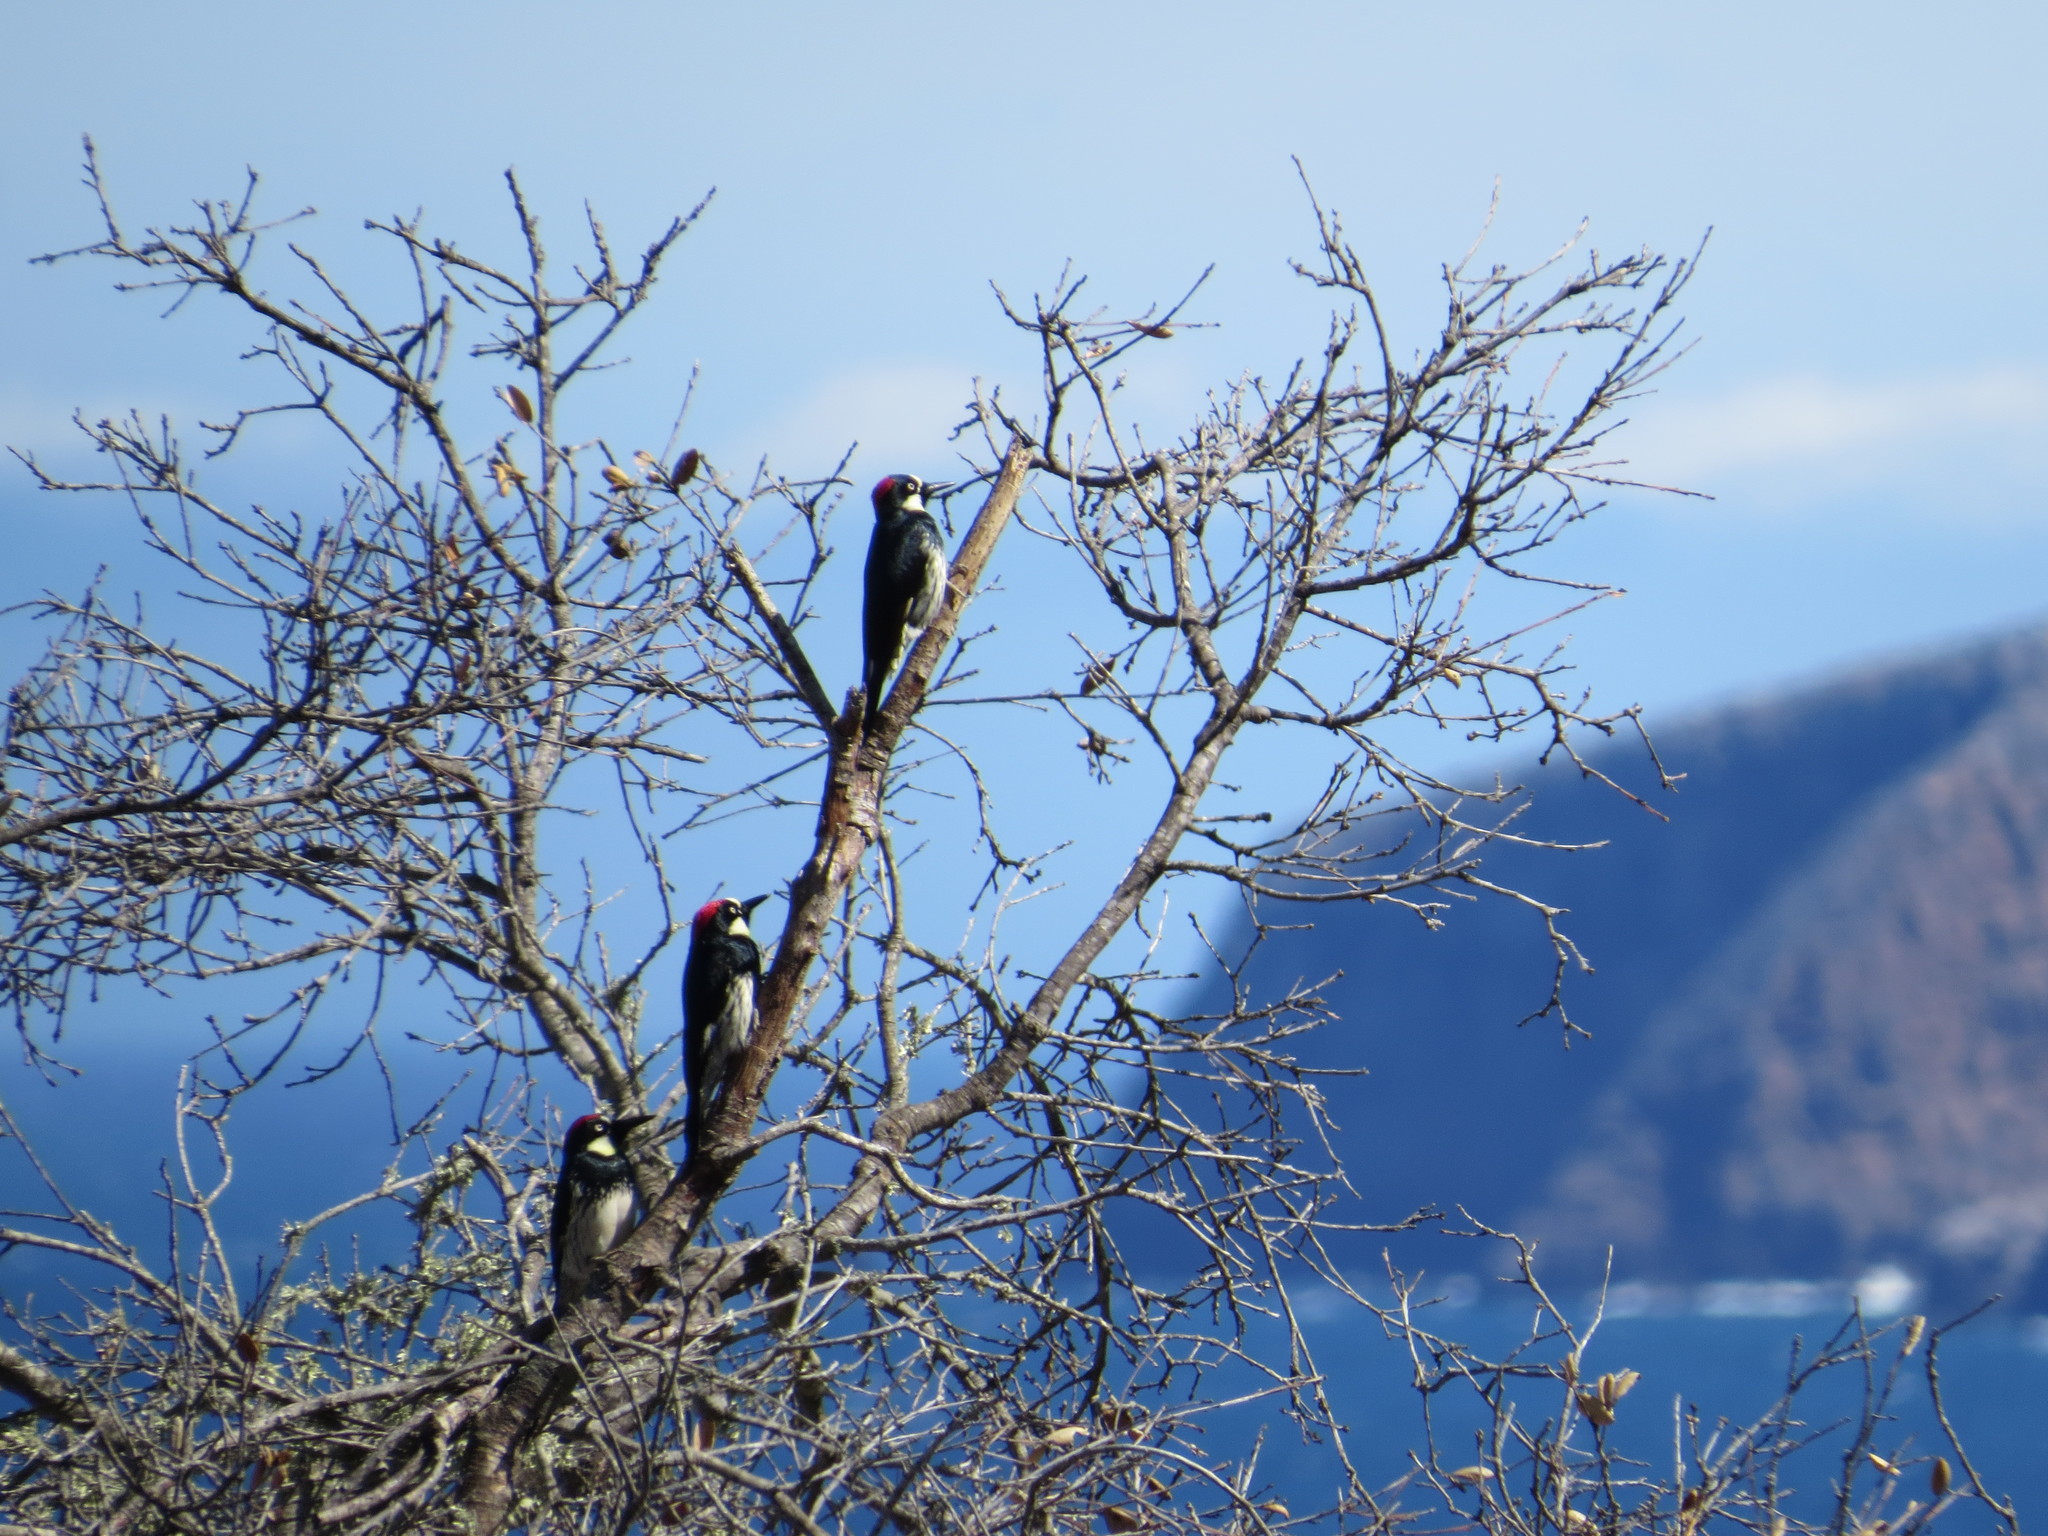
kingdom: Animalia
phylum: Chordata
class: Aves
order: Piciformes
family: Picidae
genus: Melanerpes
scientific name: Melanerpes formicivorus
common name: Acorn woodpecker
